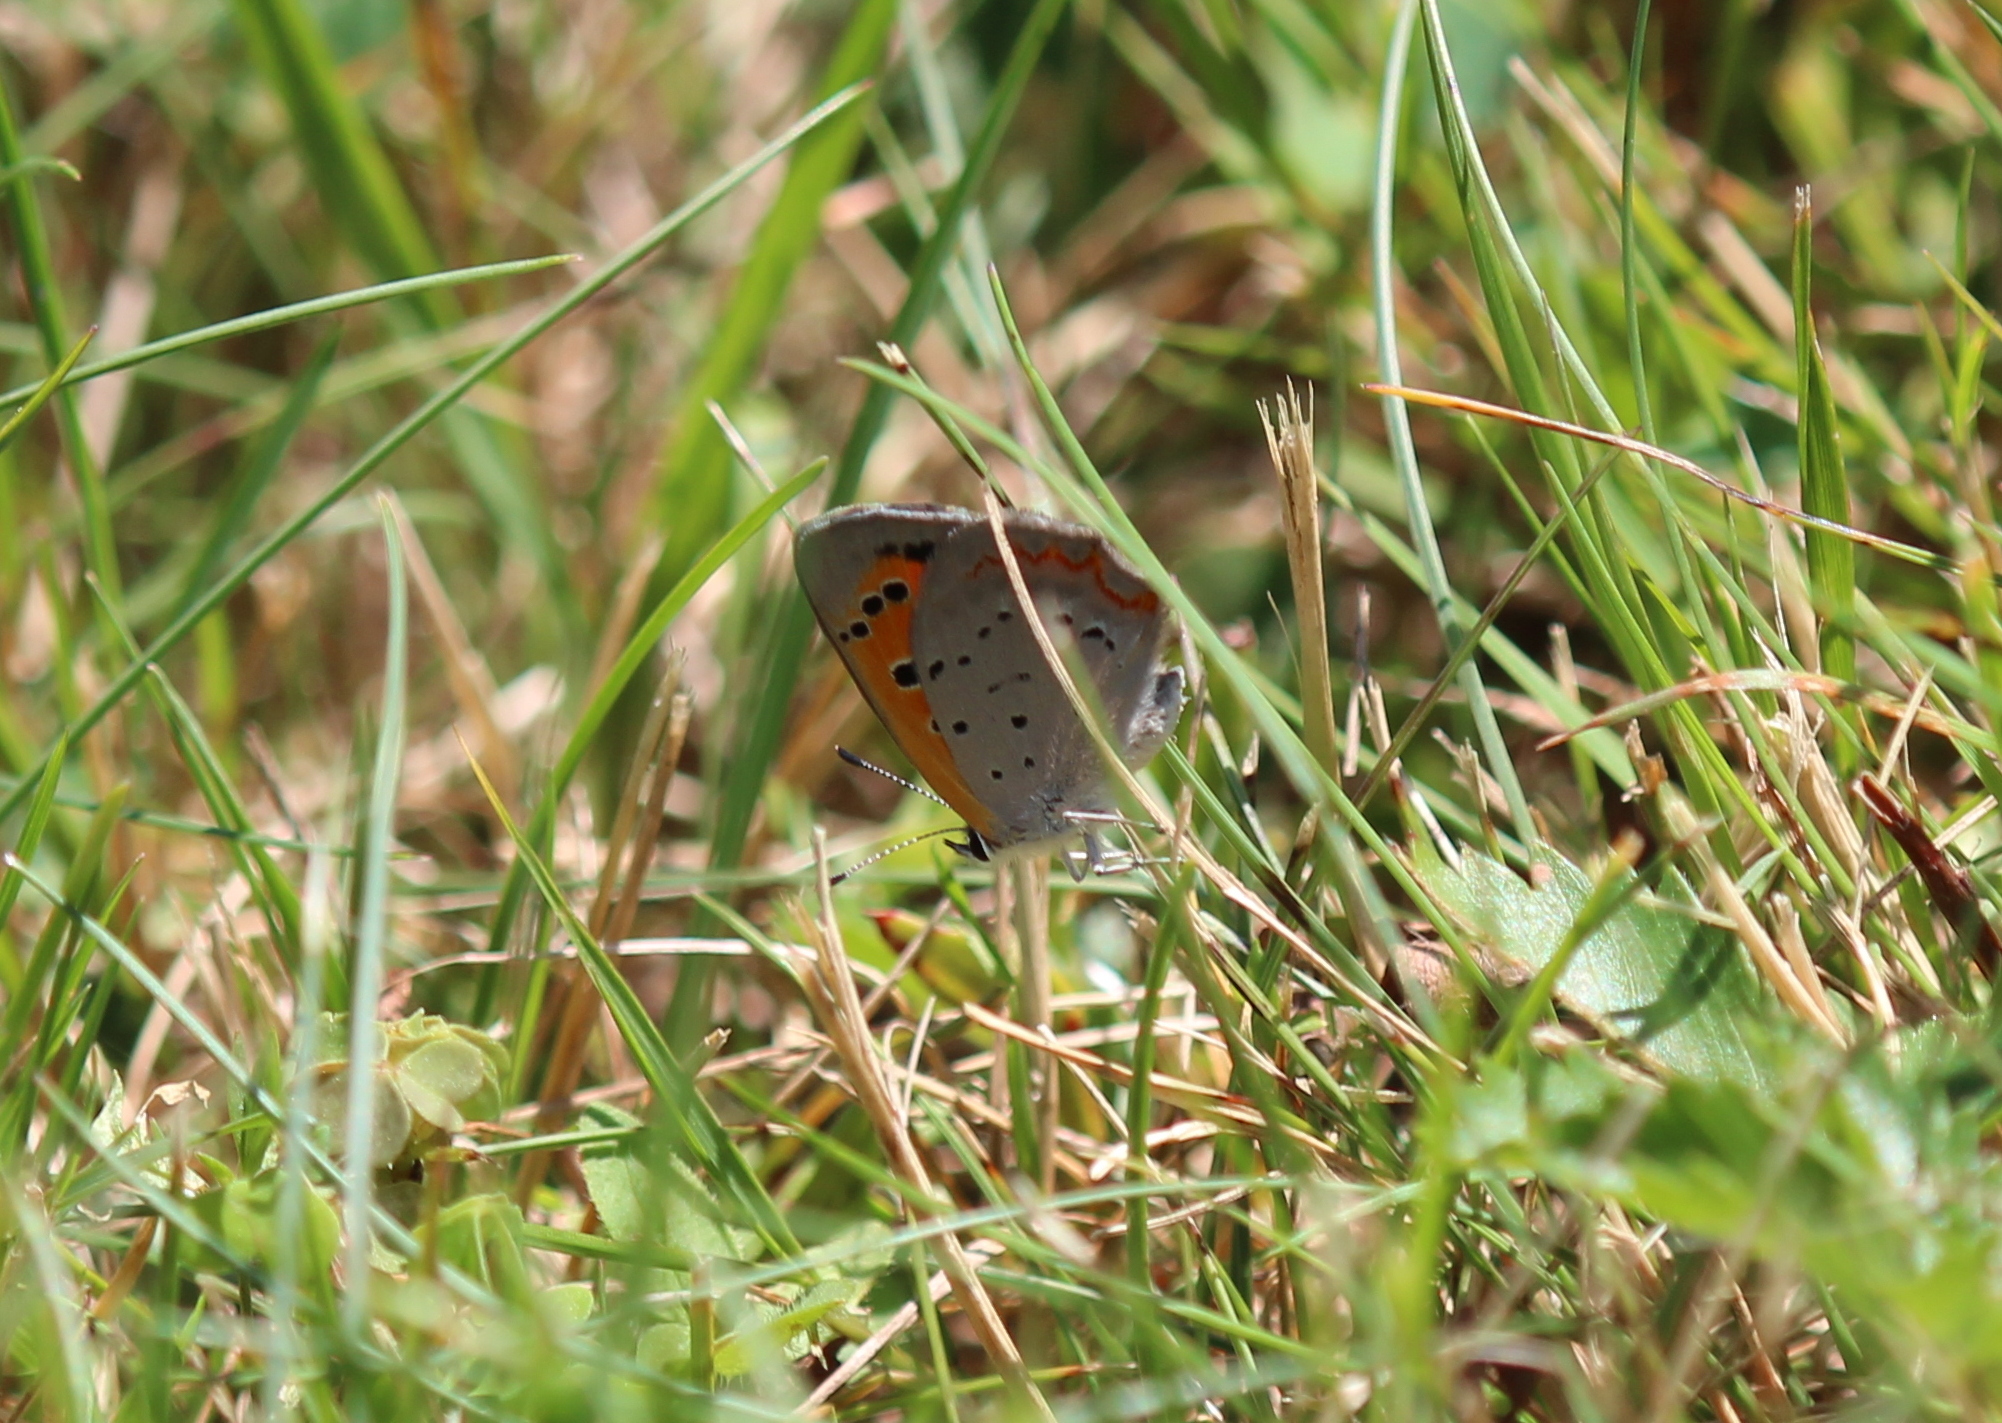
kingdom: Animalia
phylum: Arthropoda
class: Insecta
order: Lepidoptera
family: Lycaenidae
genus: Lycaena
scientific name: Lycaena hypophlaeas
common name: American copper
